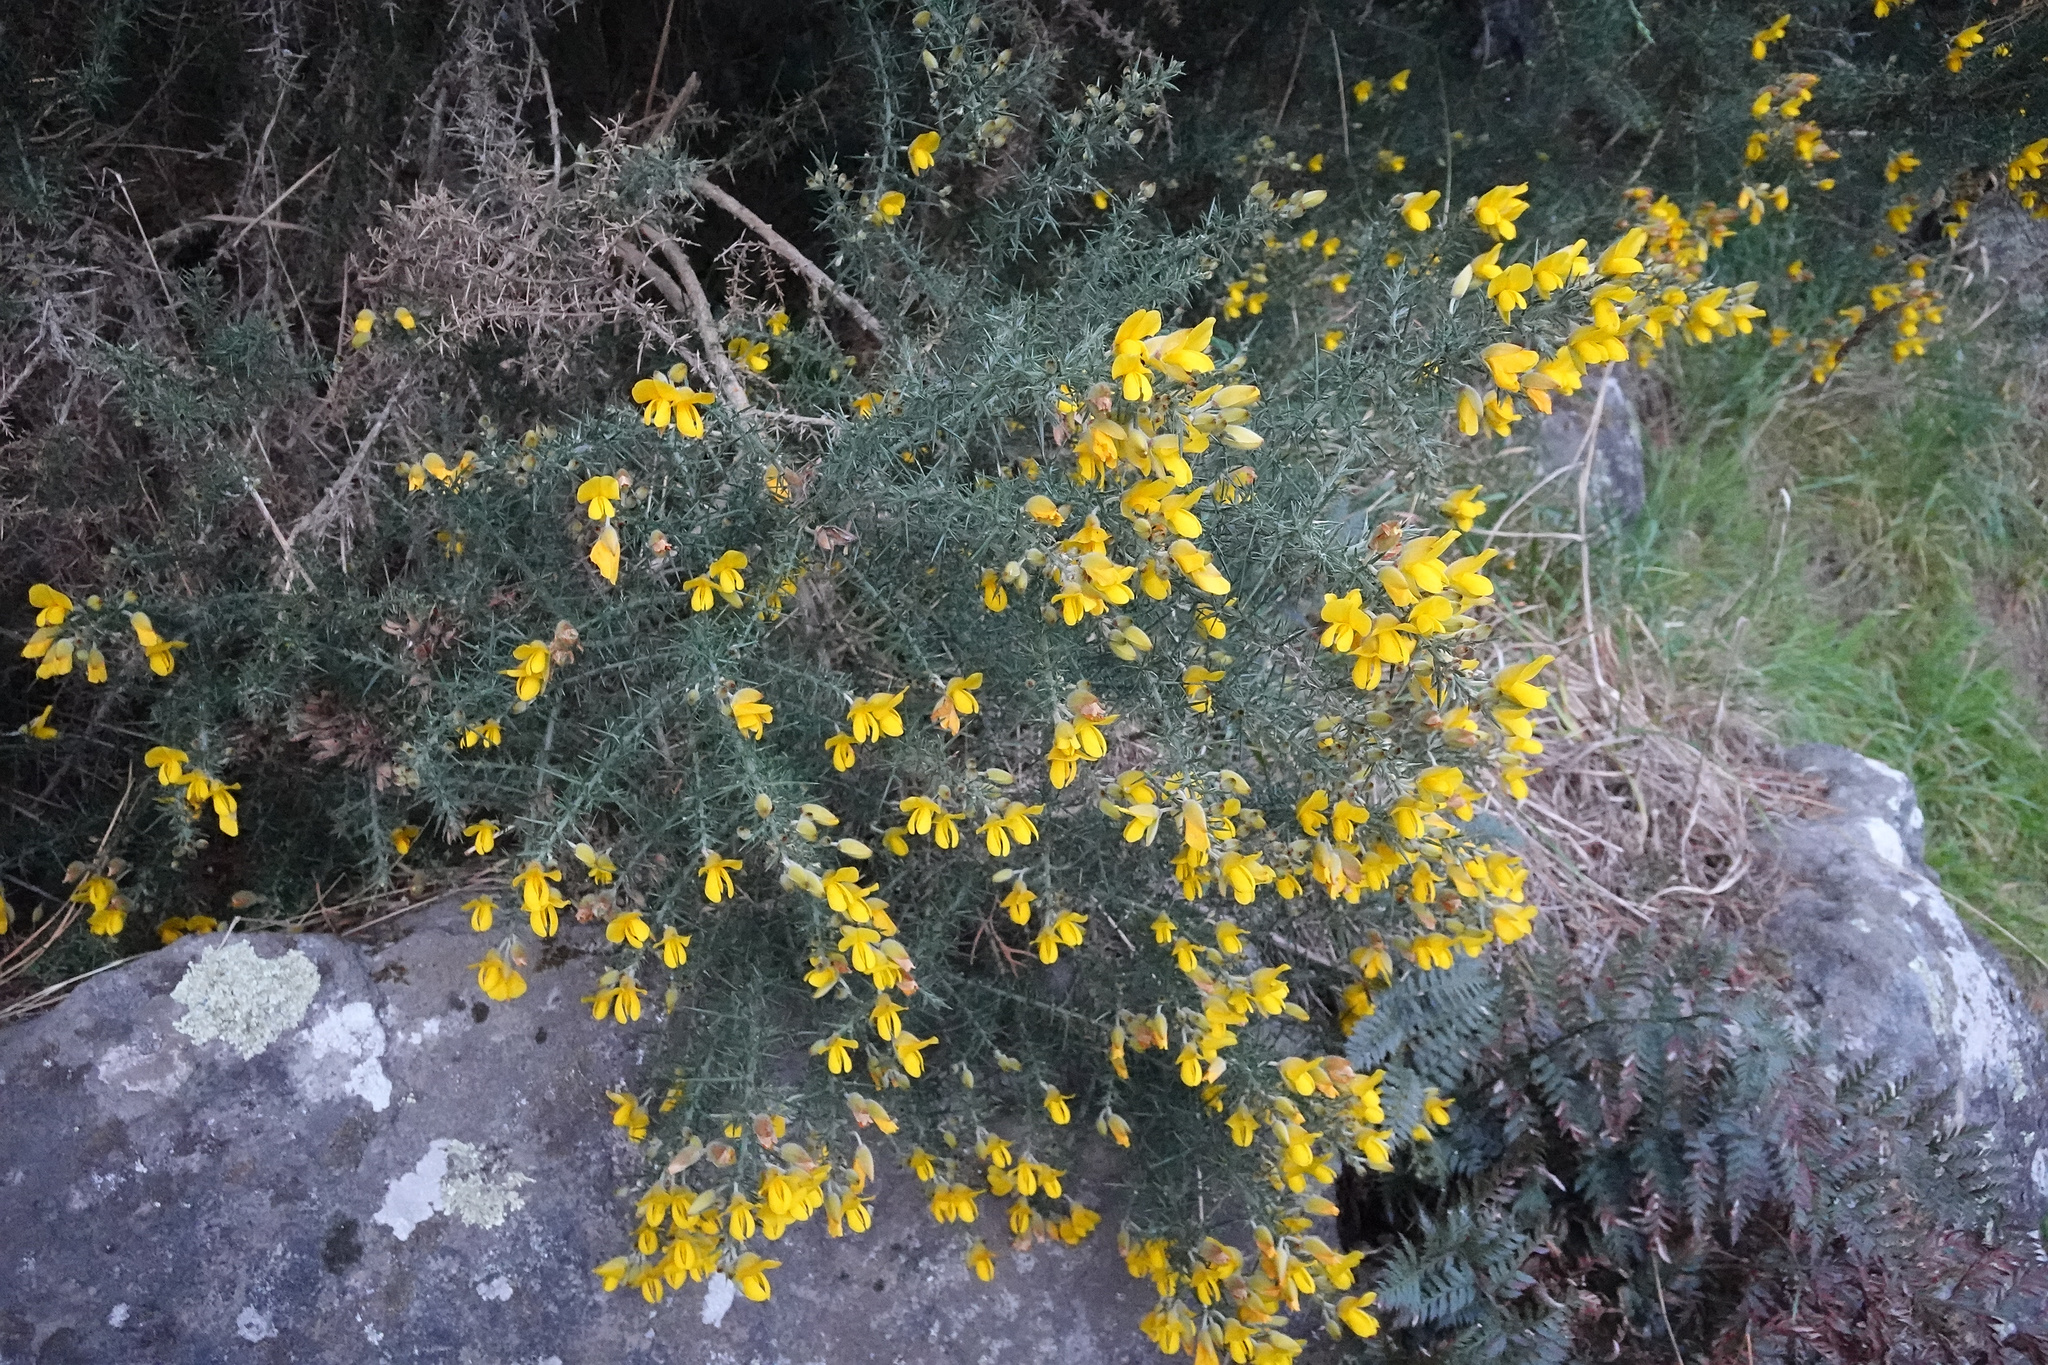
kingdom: Plantae
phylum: Tracheophyta
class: Magnoliopsida
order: Fabales
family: Fabaceae
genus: Ulex
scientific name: Ulex europaeus
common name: Common gorse
